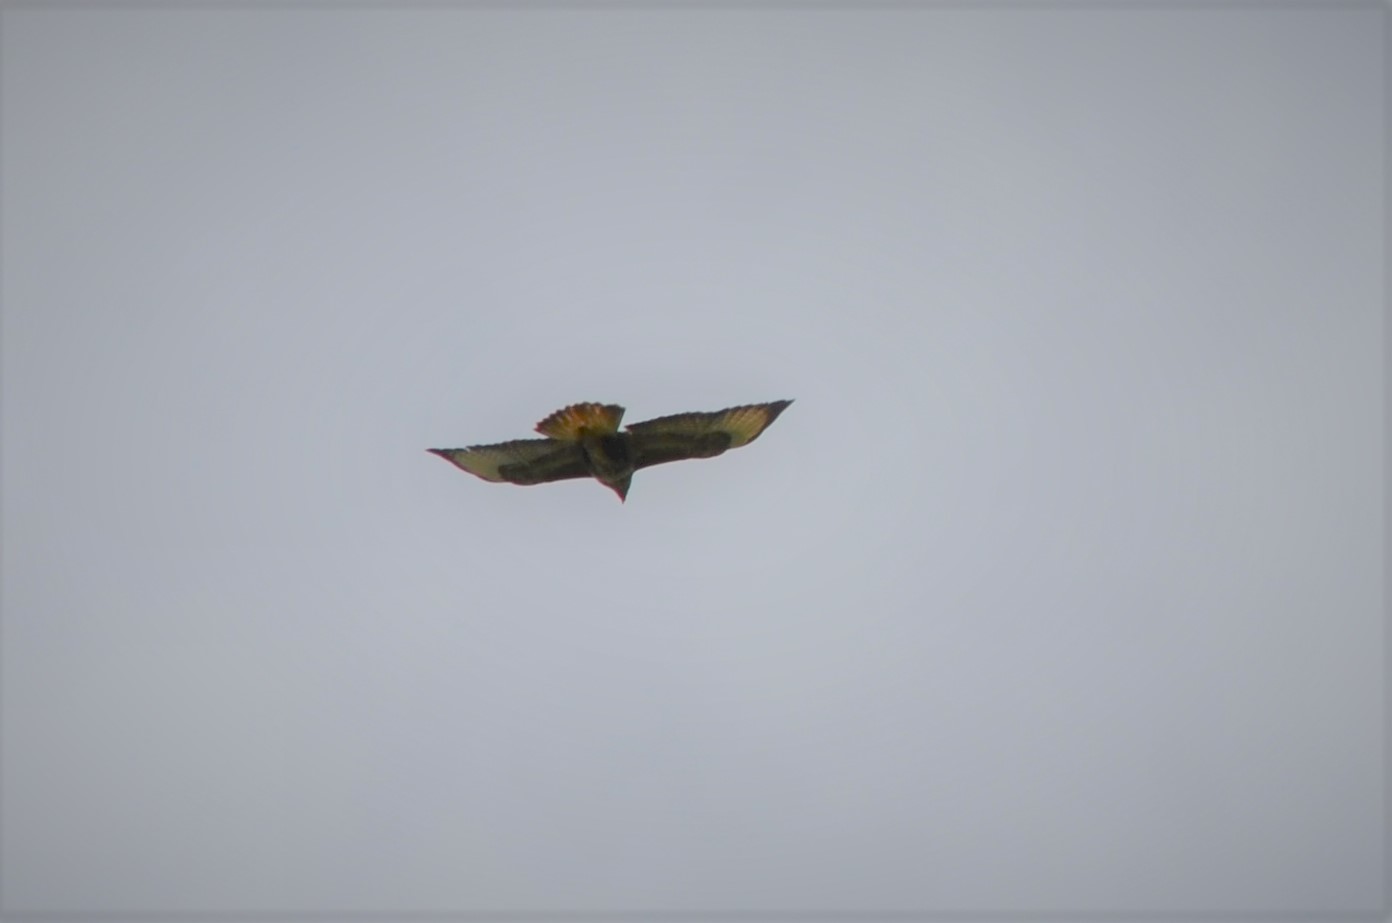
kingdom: Animalia
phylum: Chordata
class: Aves
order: Accipitriformes
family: Accipitridae
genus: Buteo
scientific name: Buteo buteo
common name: Common buzzard
